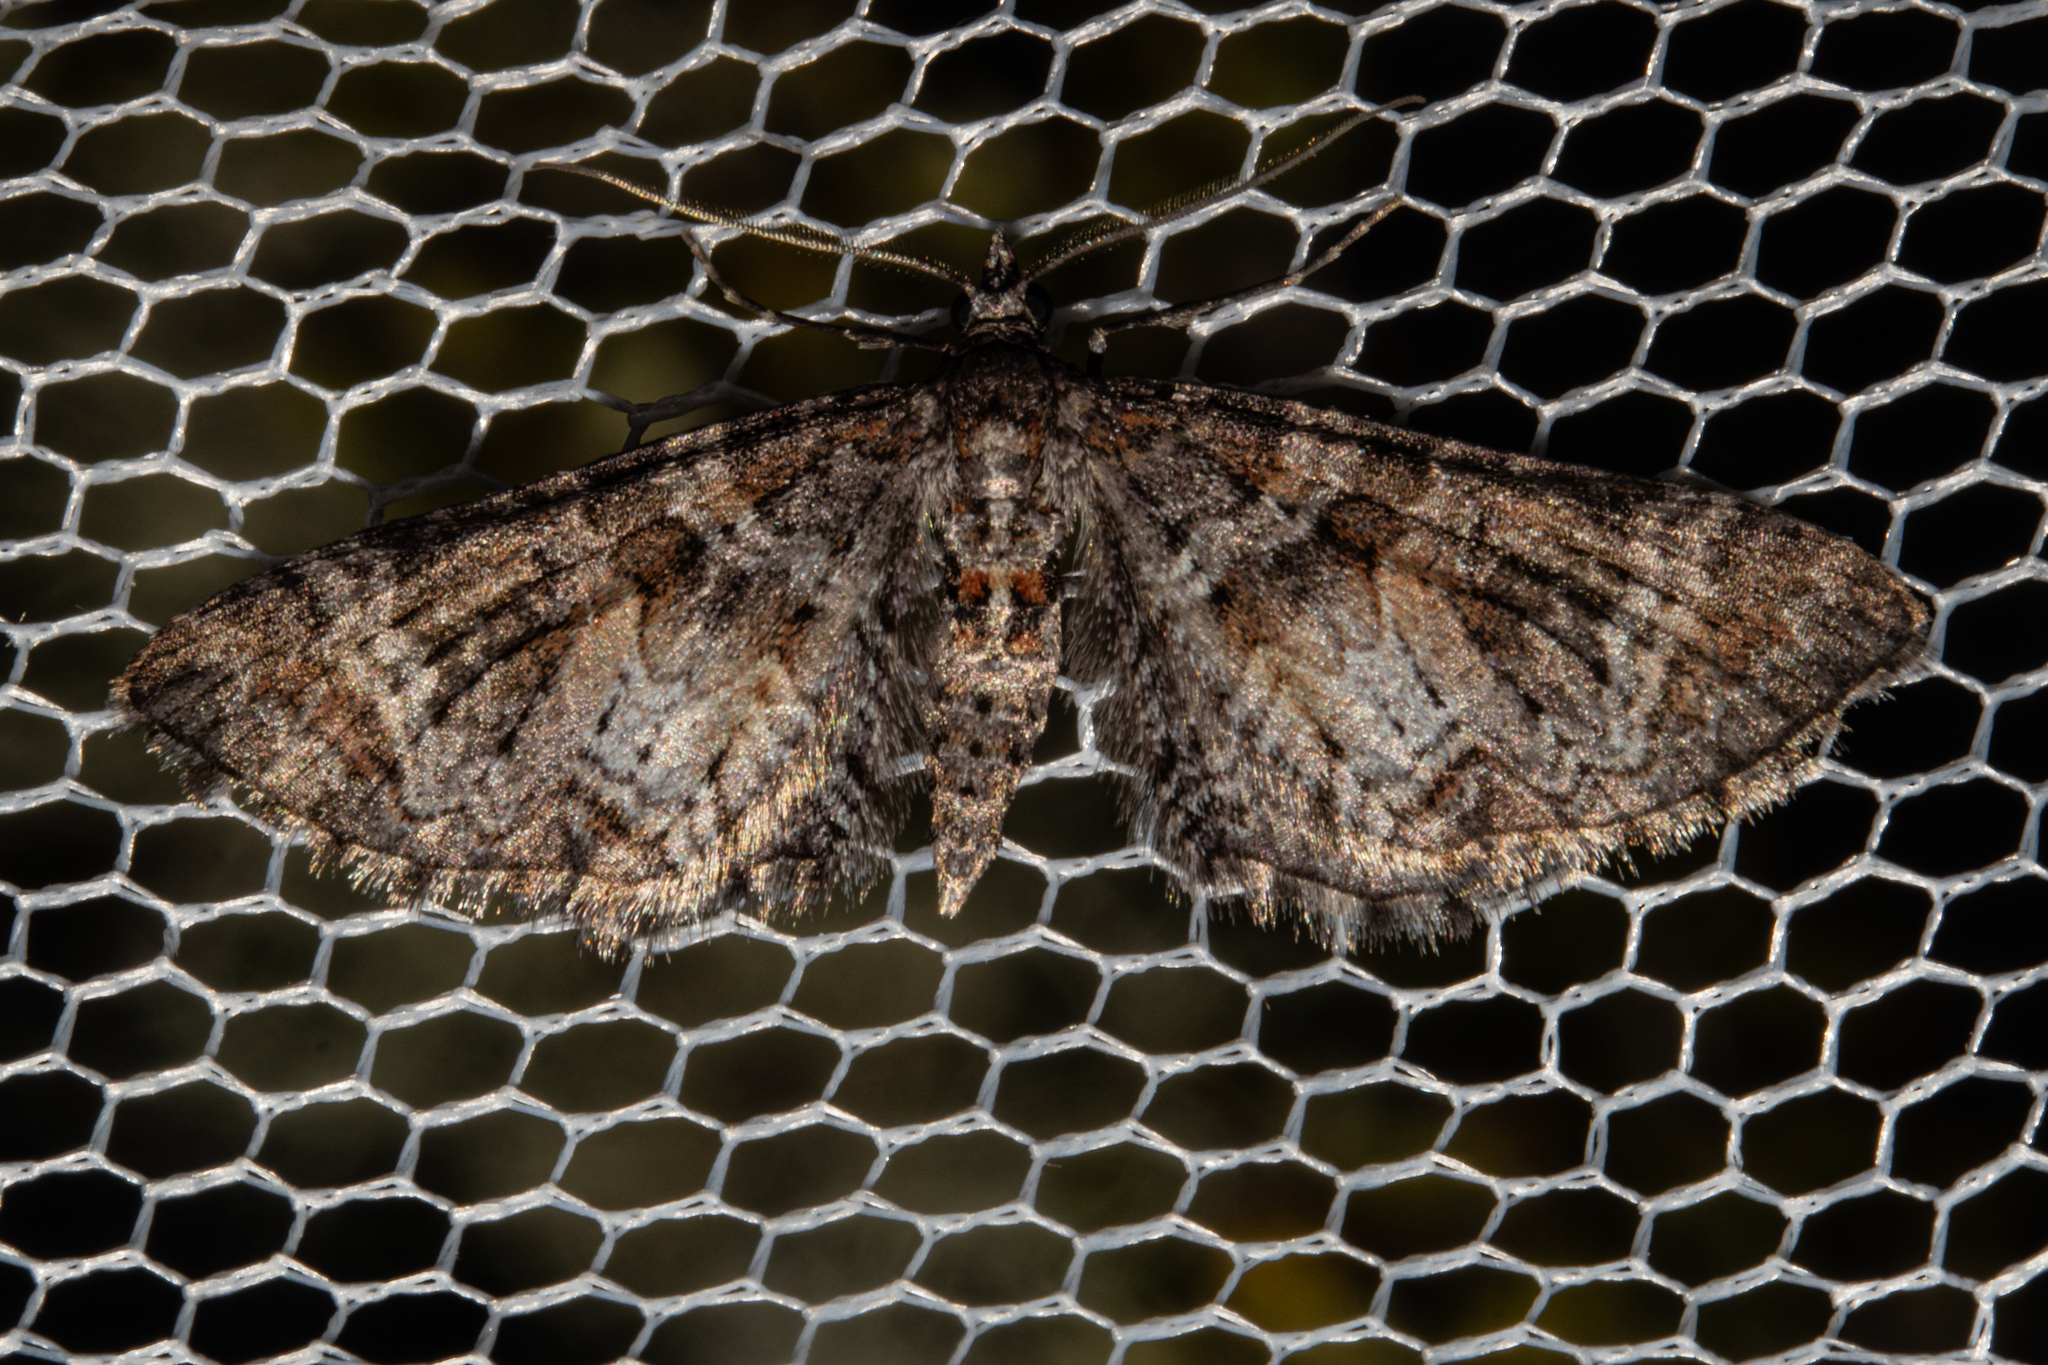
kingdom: Animalia
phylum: Arthropoda
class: Insecta
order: Lepidoptera
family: Geometridae
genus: Pasiphila
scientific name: Pasiphila halianthes
